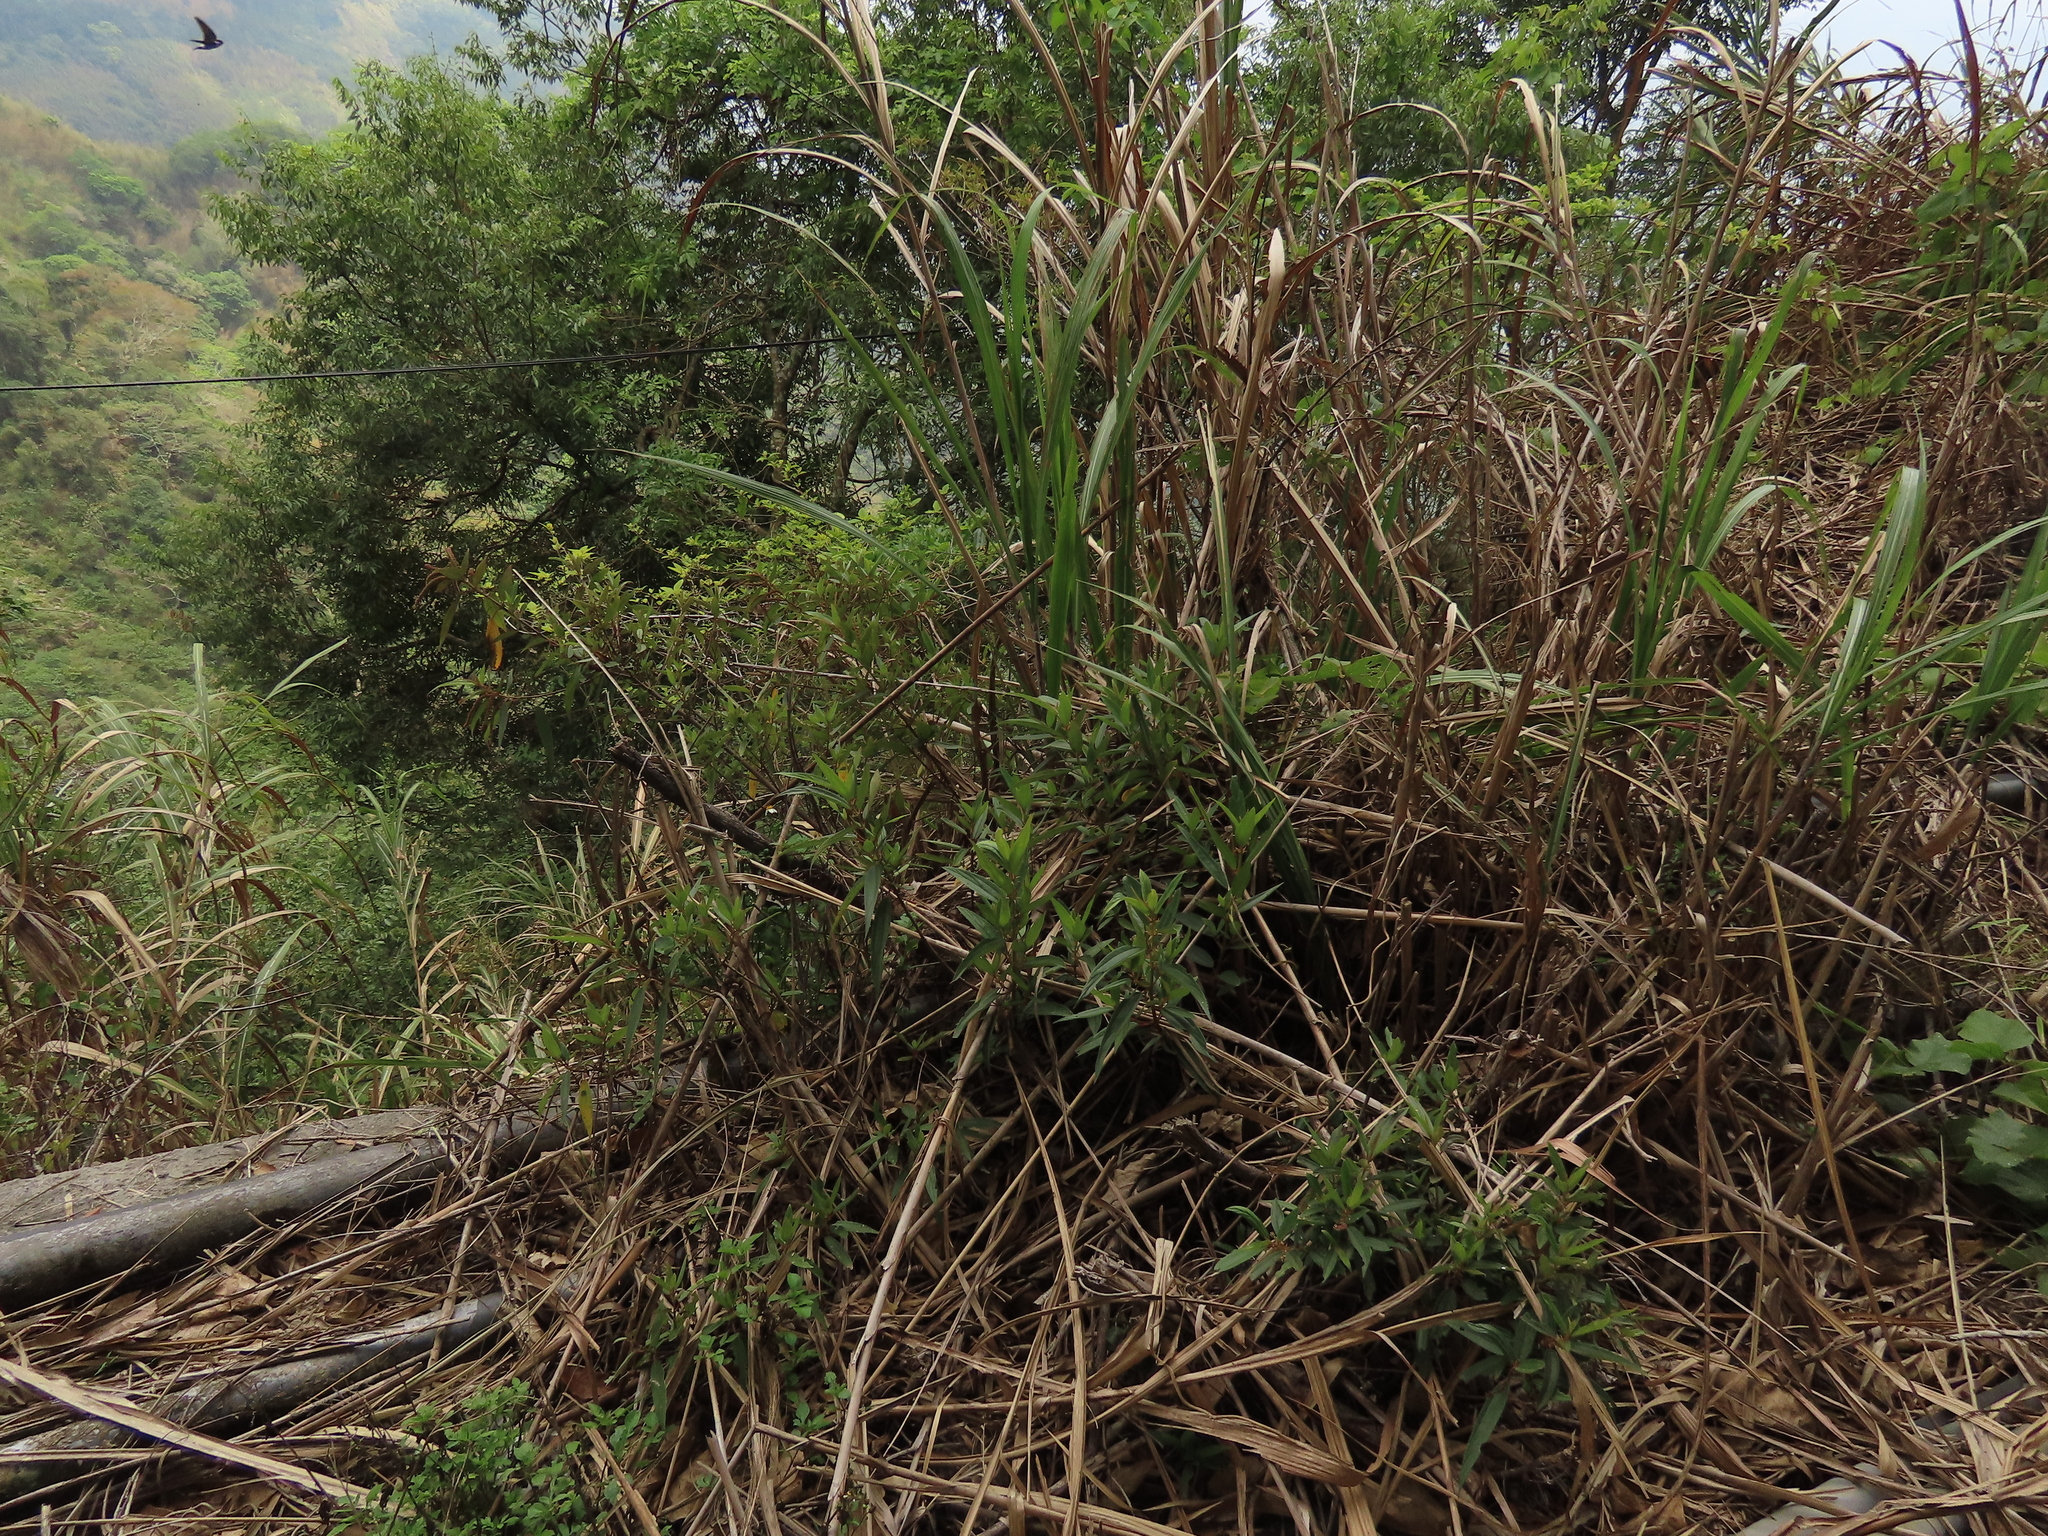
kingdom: Plantae
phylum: Tracheophyta
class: Magnoliopsida
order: Rosales
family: Urticaceae
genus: Boehmeria
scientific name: Boehmeria densiflora
